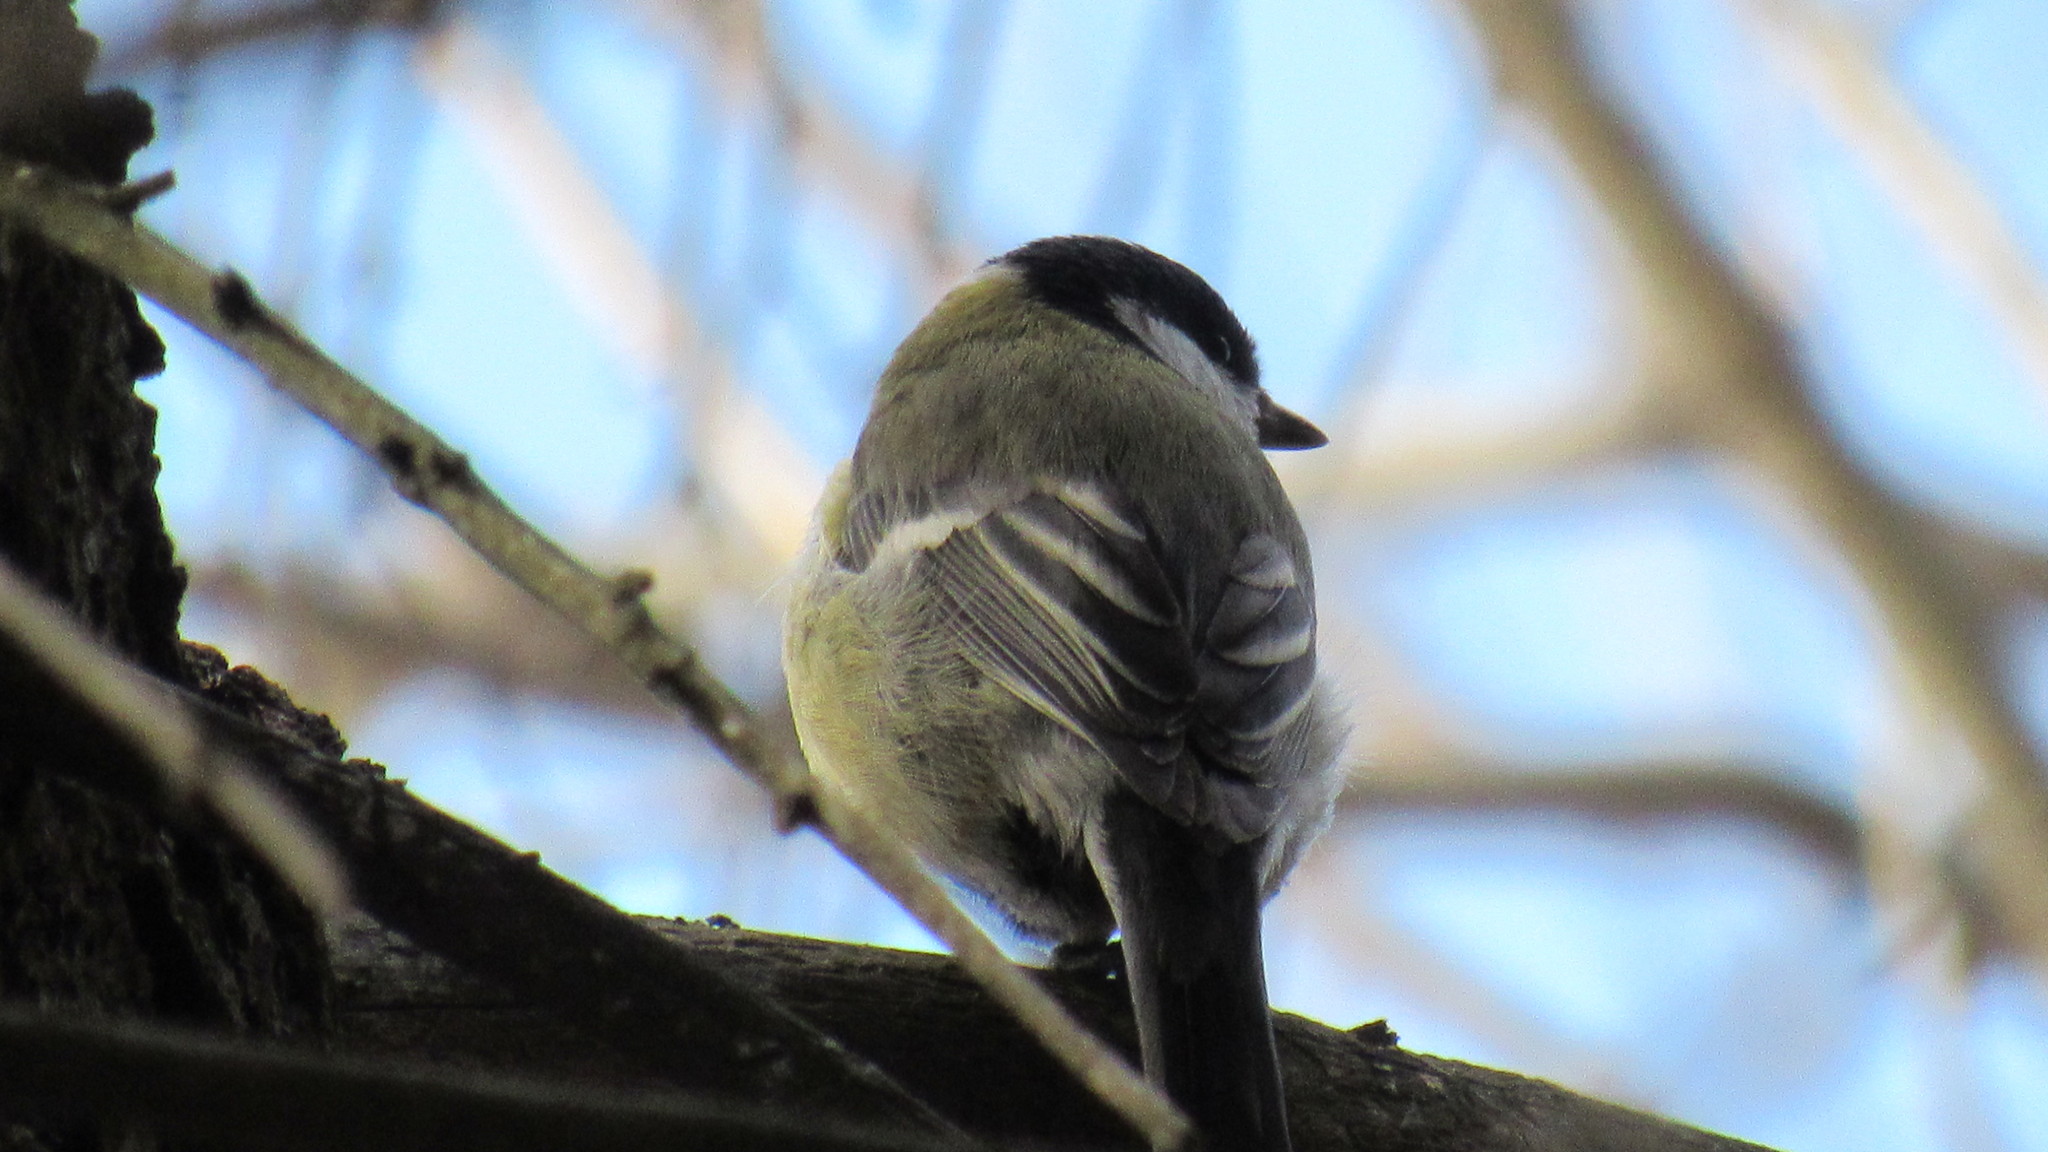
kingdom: Animalia
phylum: Chordata
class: Aves
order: Passeriformes
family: Paridae
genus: Parus
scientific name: Parus major
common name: Great tit
